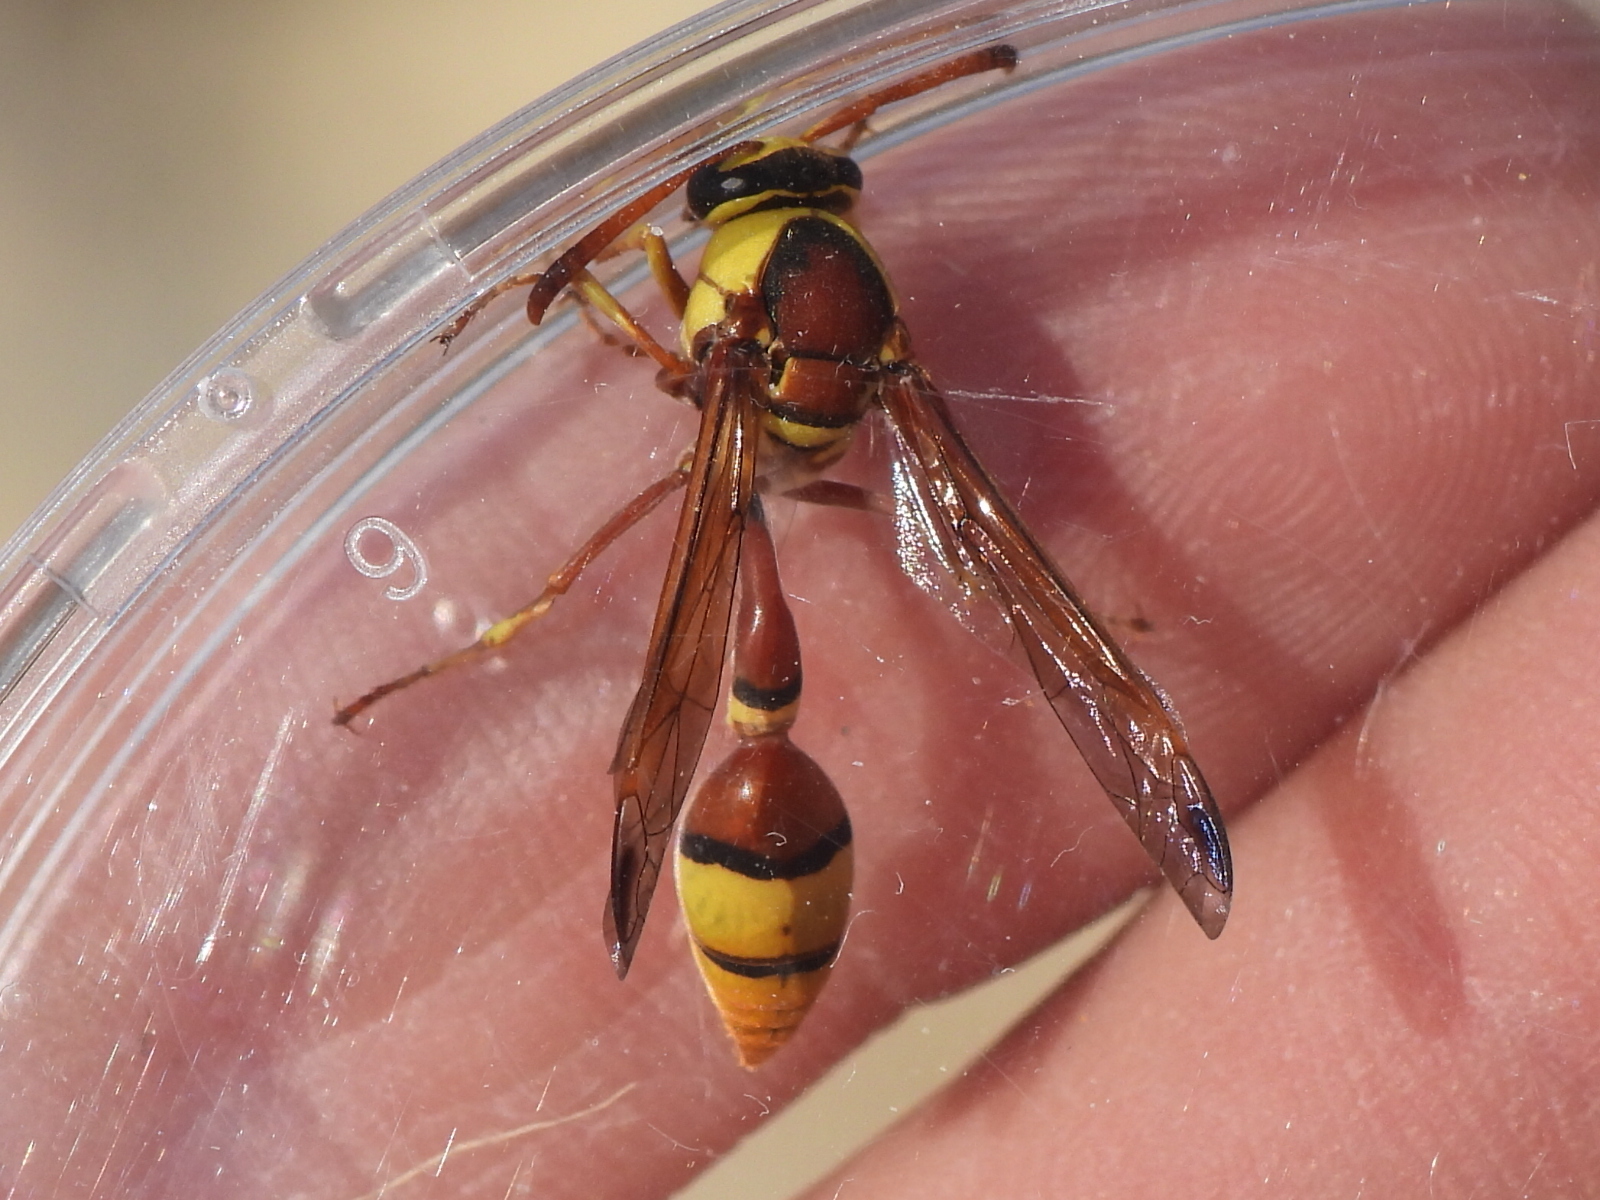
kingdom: Animalia
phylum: Arthropoda
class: Insecta
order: Hymenoptera
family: Eumenidae
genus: Delta
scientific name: Delta esuriens
